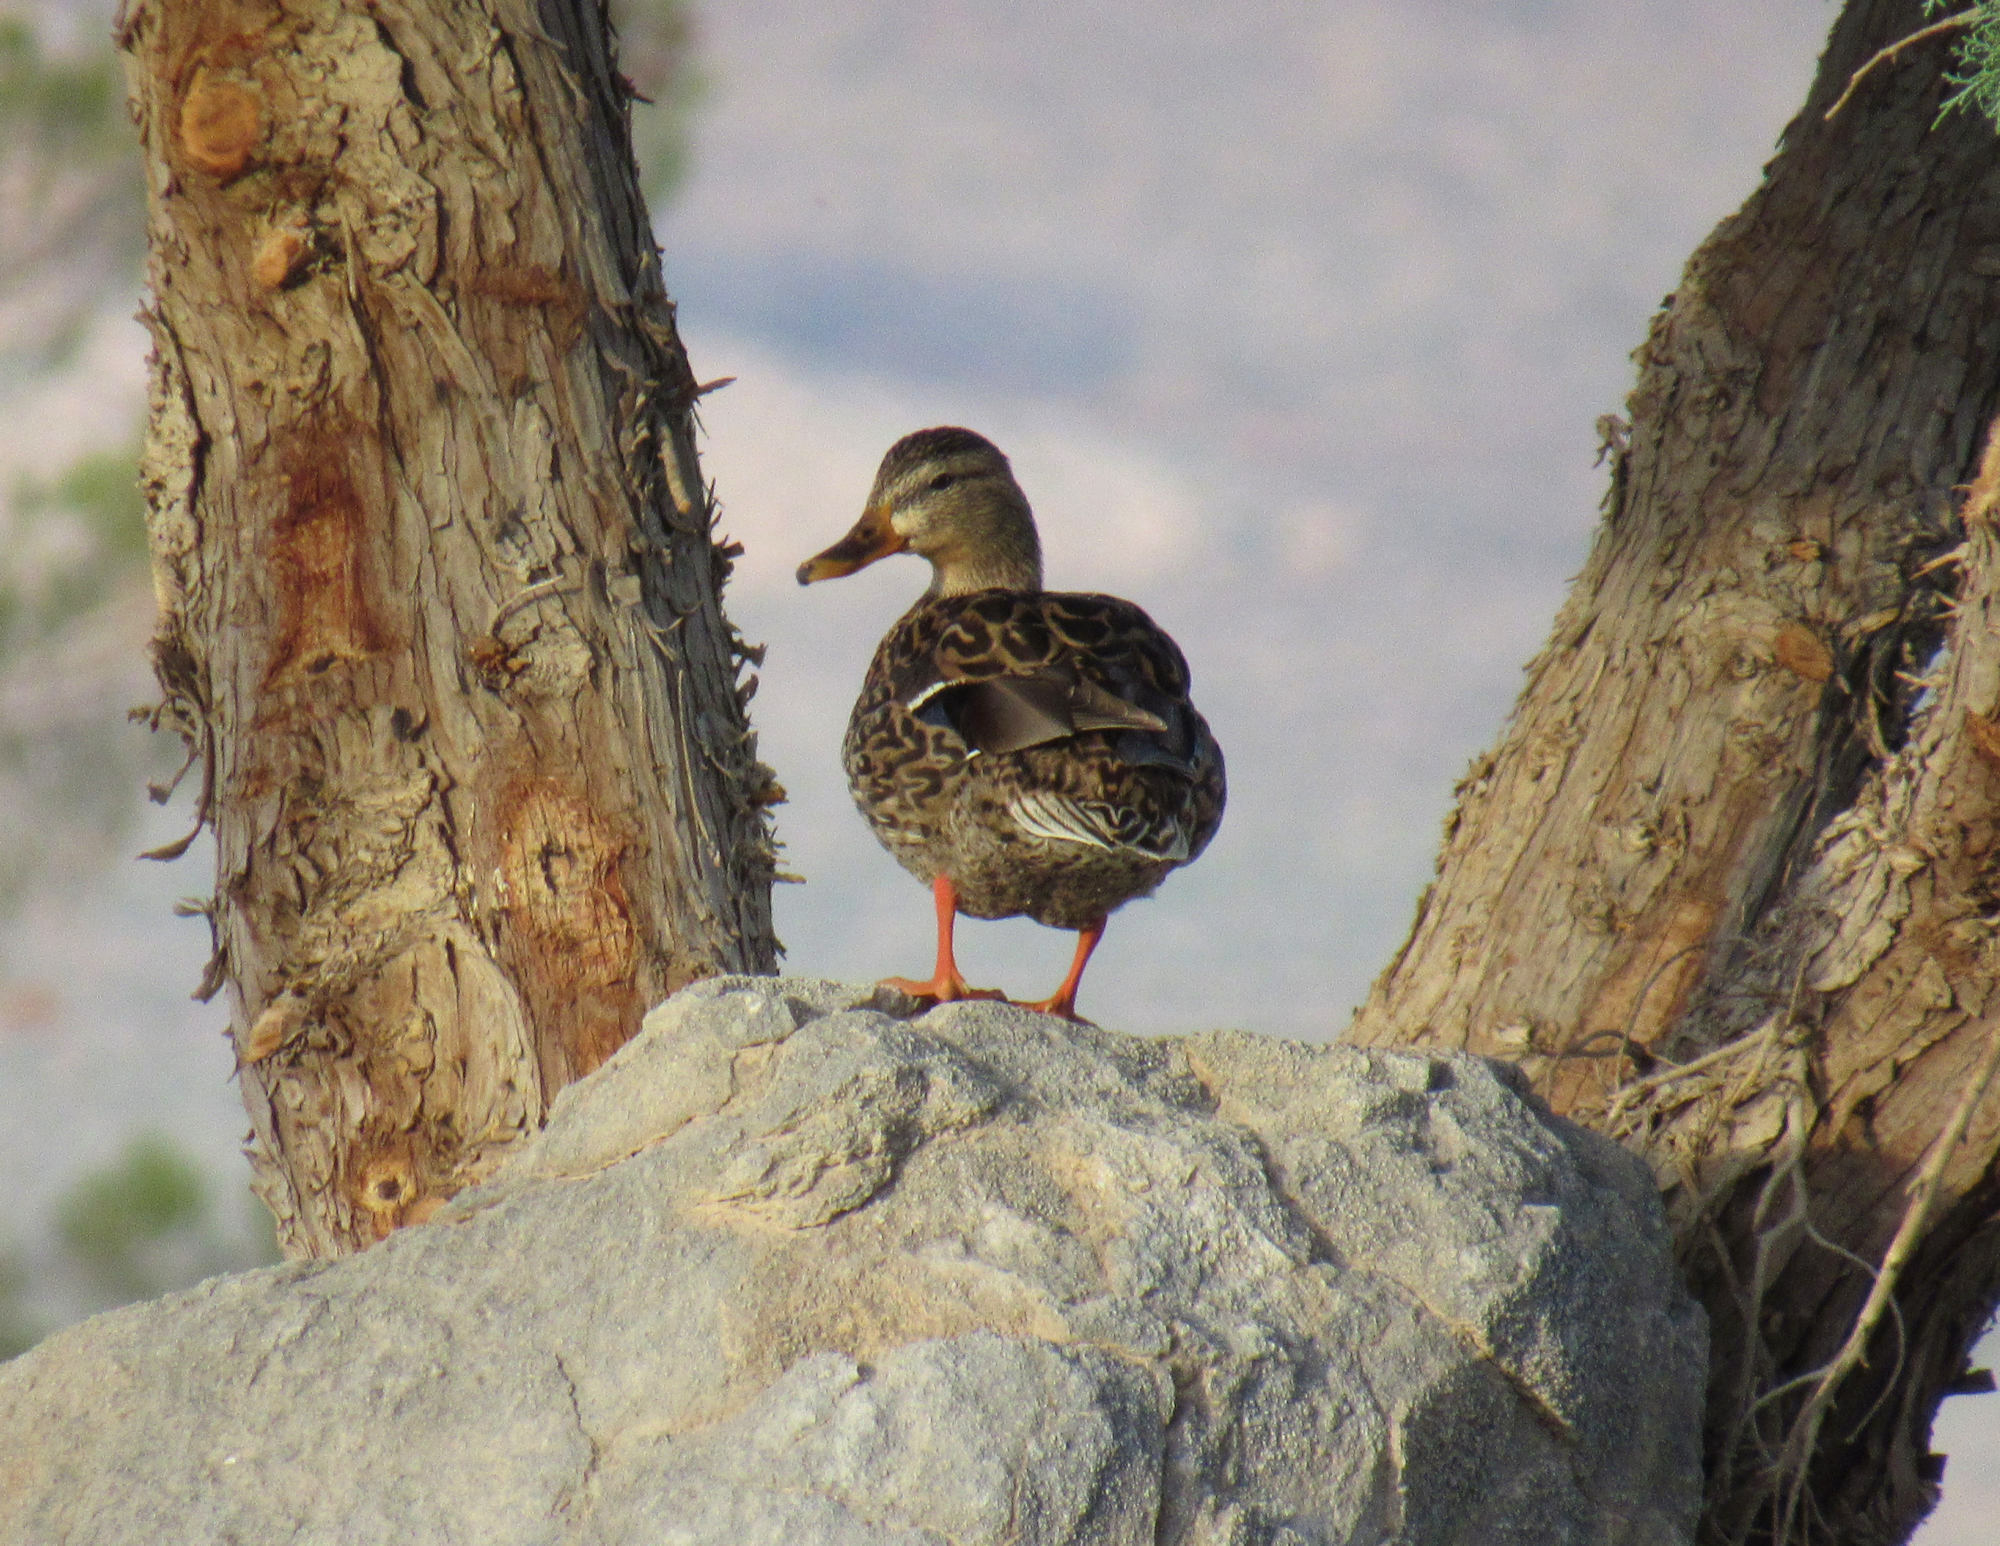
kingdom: Animalia
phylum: Chordata
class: Aves
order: Anseriformes
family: Anatidae
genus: Anas
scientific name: Anas platyrhynchos
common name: Mallard
